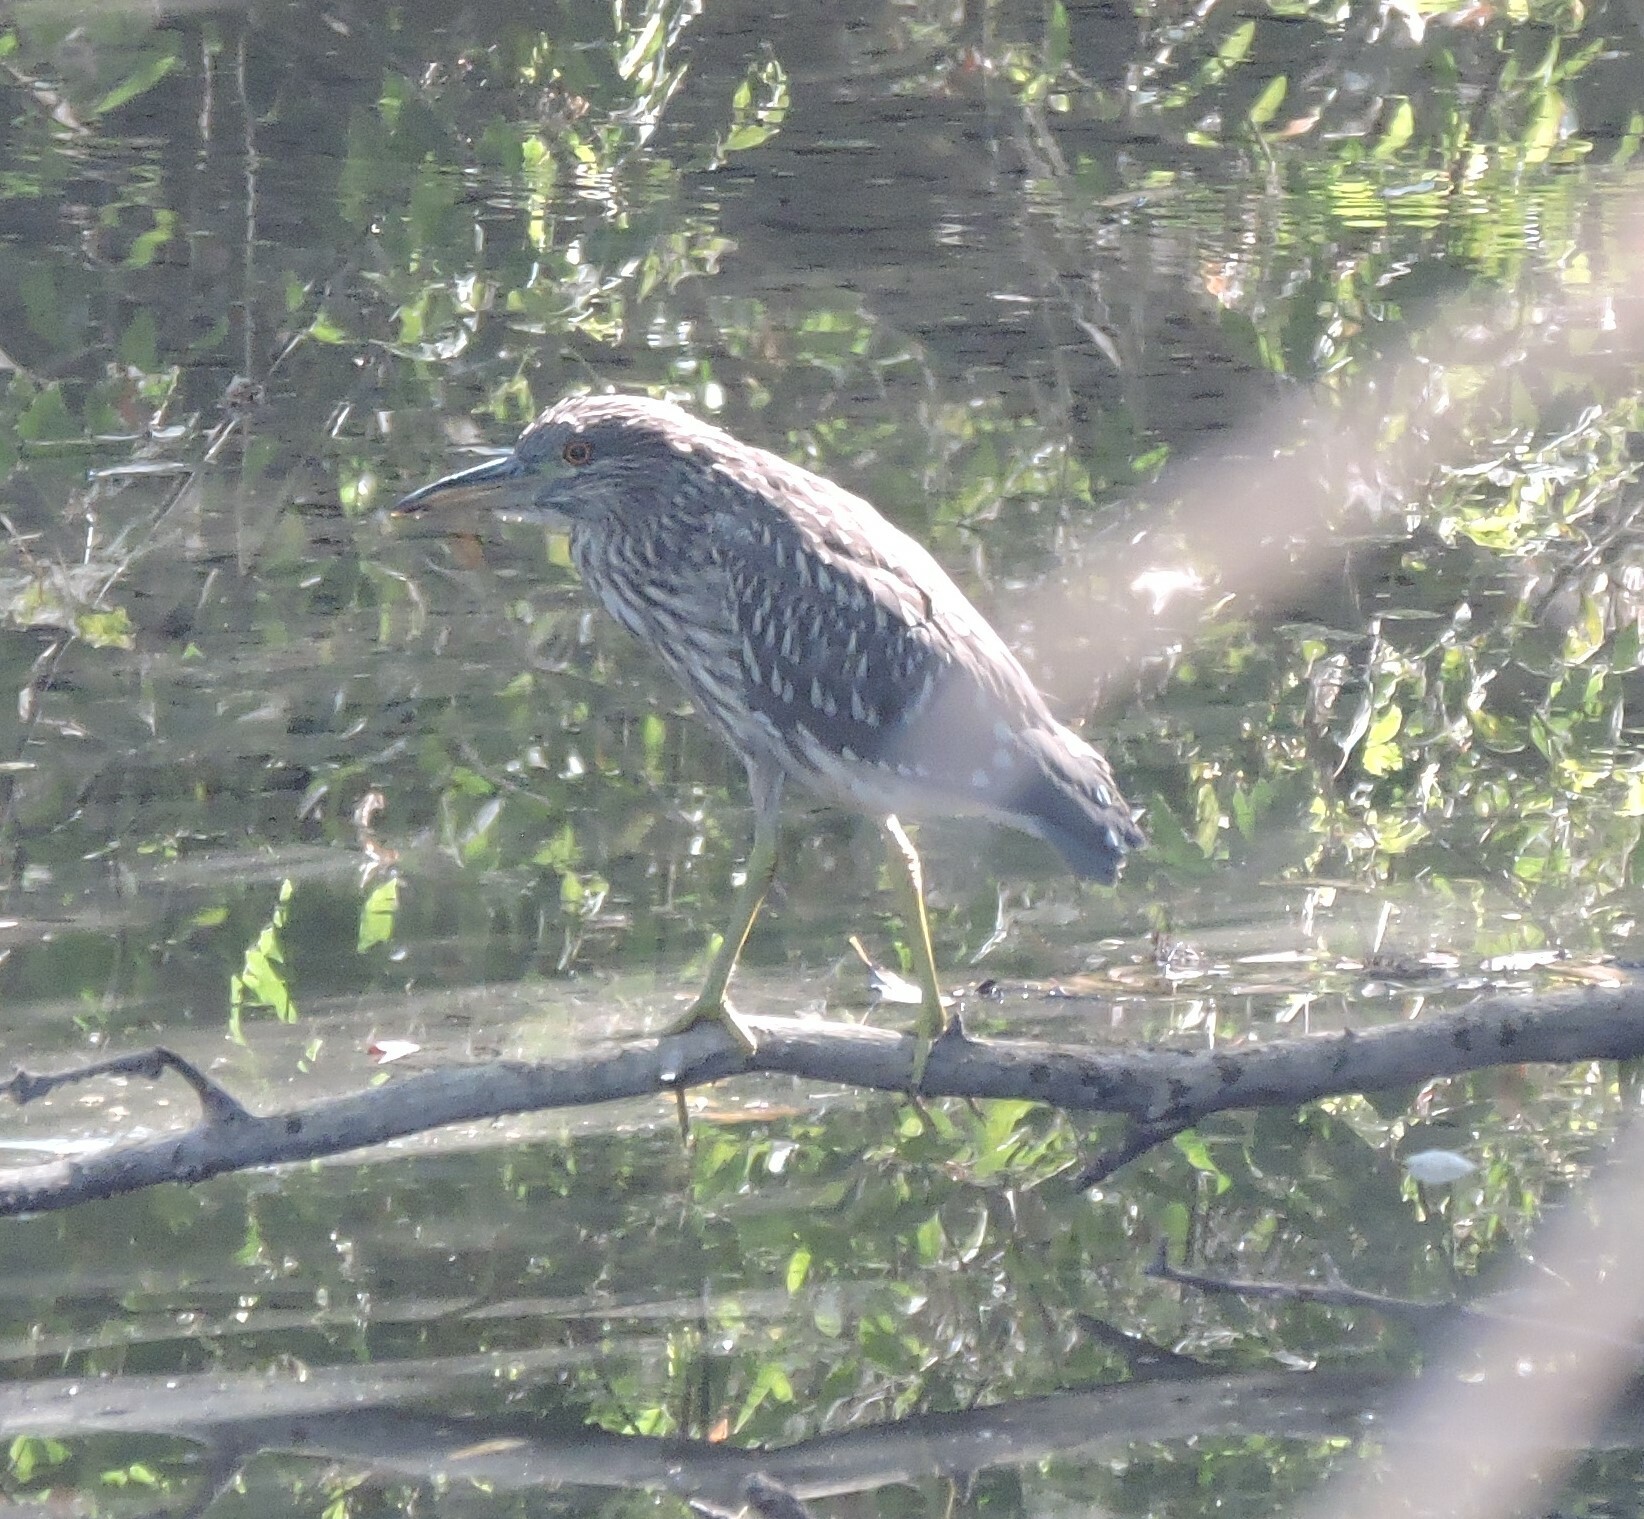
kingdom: Animalia
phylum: Chordata
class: Aves
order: Pelecaniformes
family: Ardeidae
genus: Nycticorax
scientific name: Nycticorax nycticorax
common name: Black-crowned night heron
